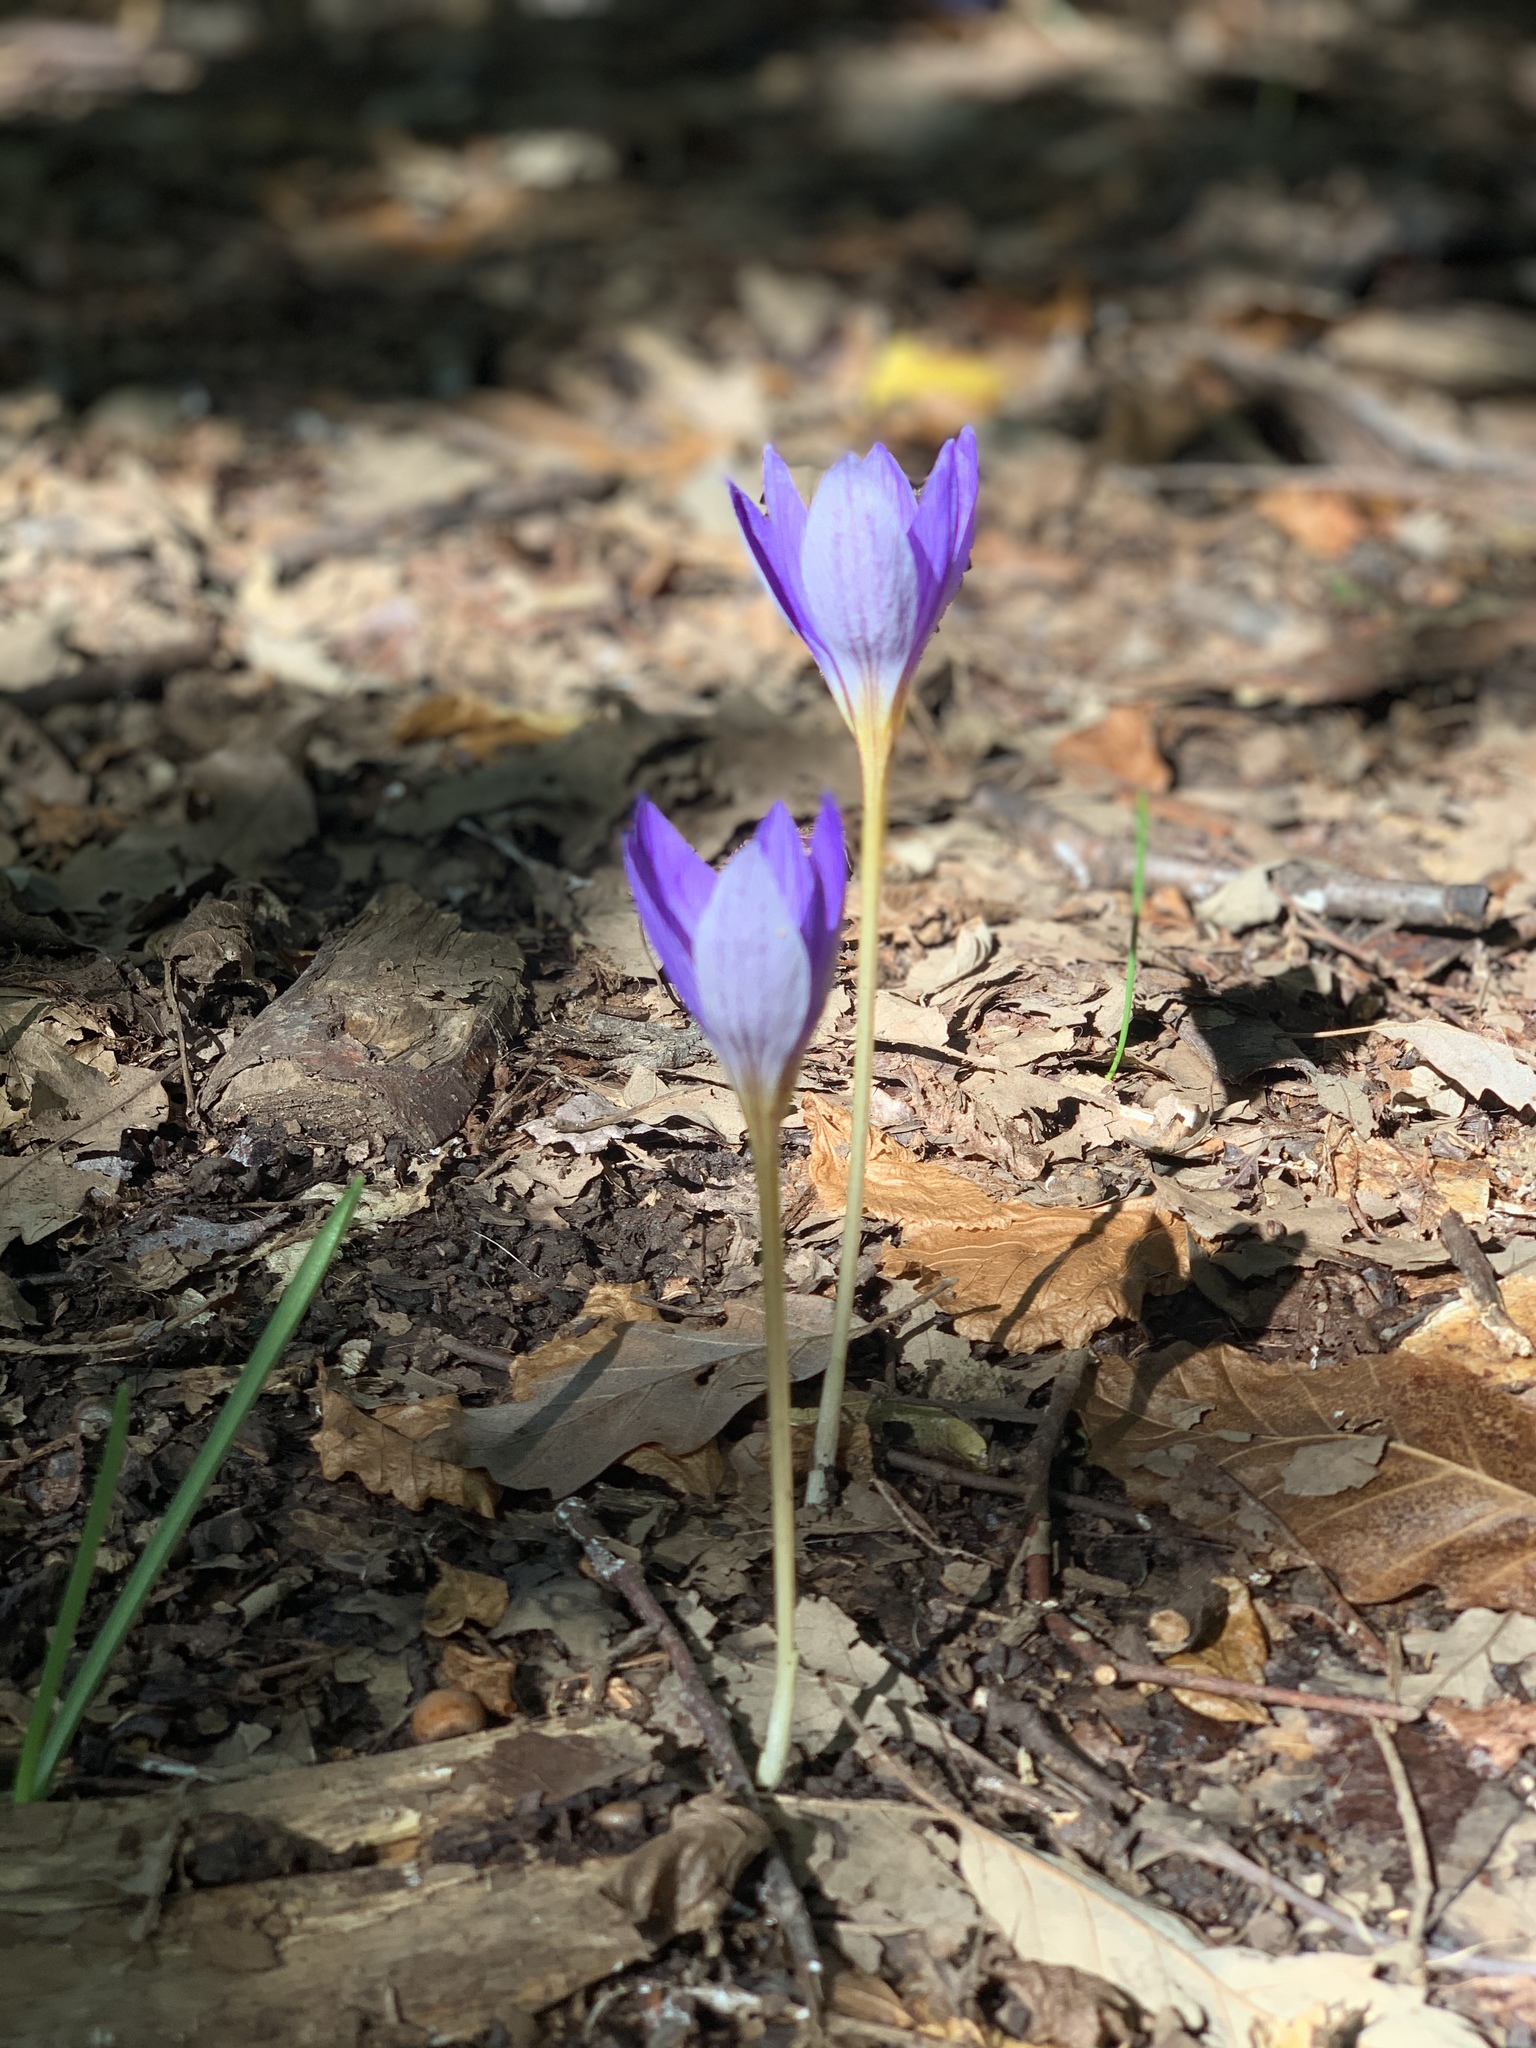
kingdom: Plantae
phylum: Tracheophyta
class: Liliopsida
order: Asparagales
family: Iridaceae
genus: Crocus
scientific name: Crocus speciosus
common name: Bieberstein's crocus
